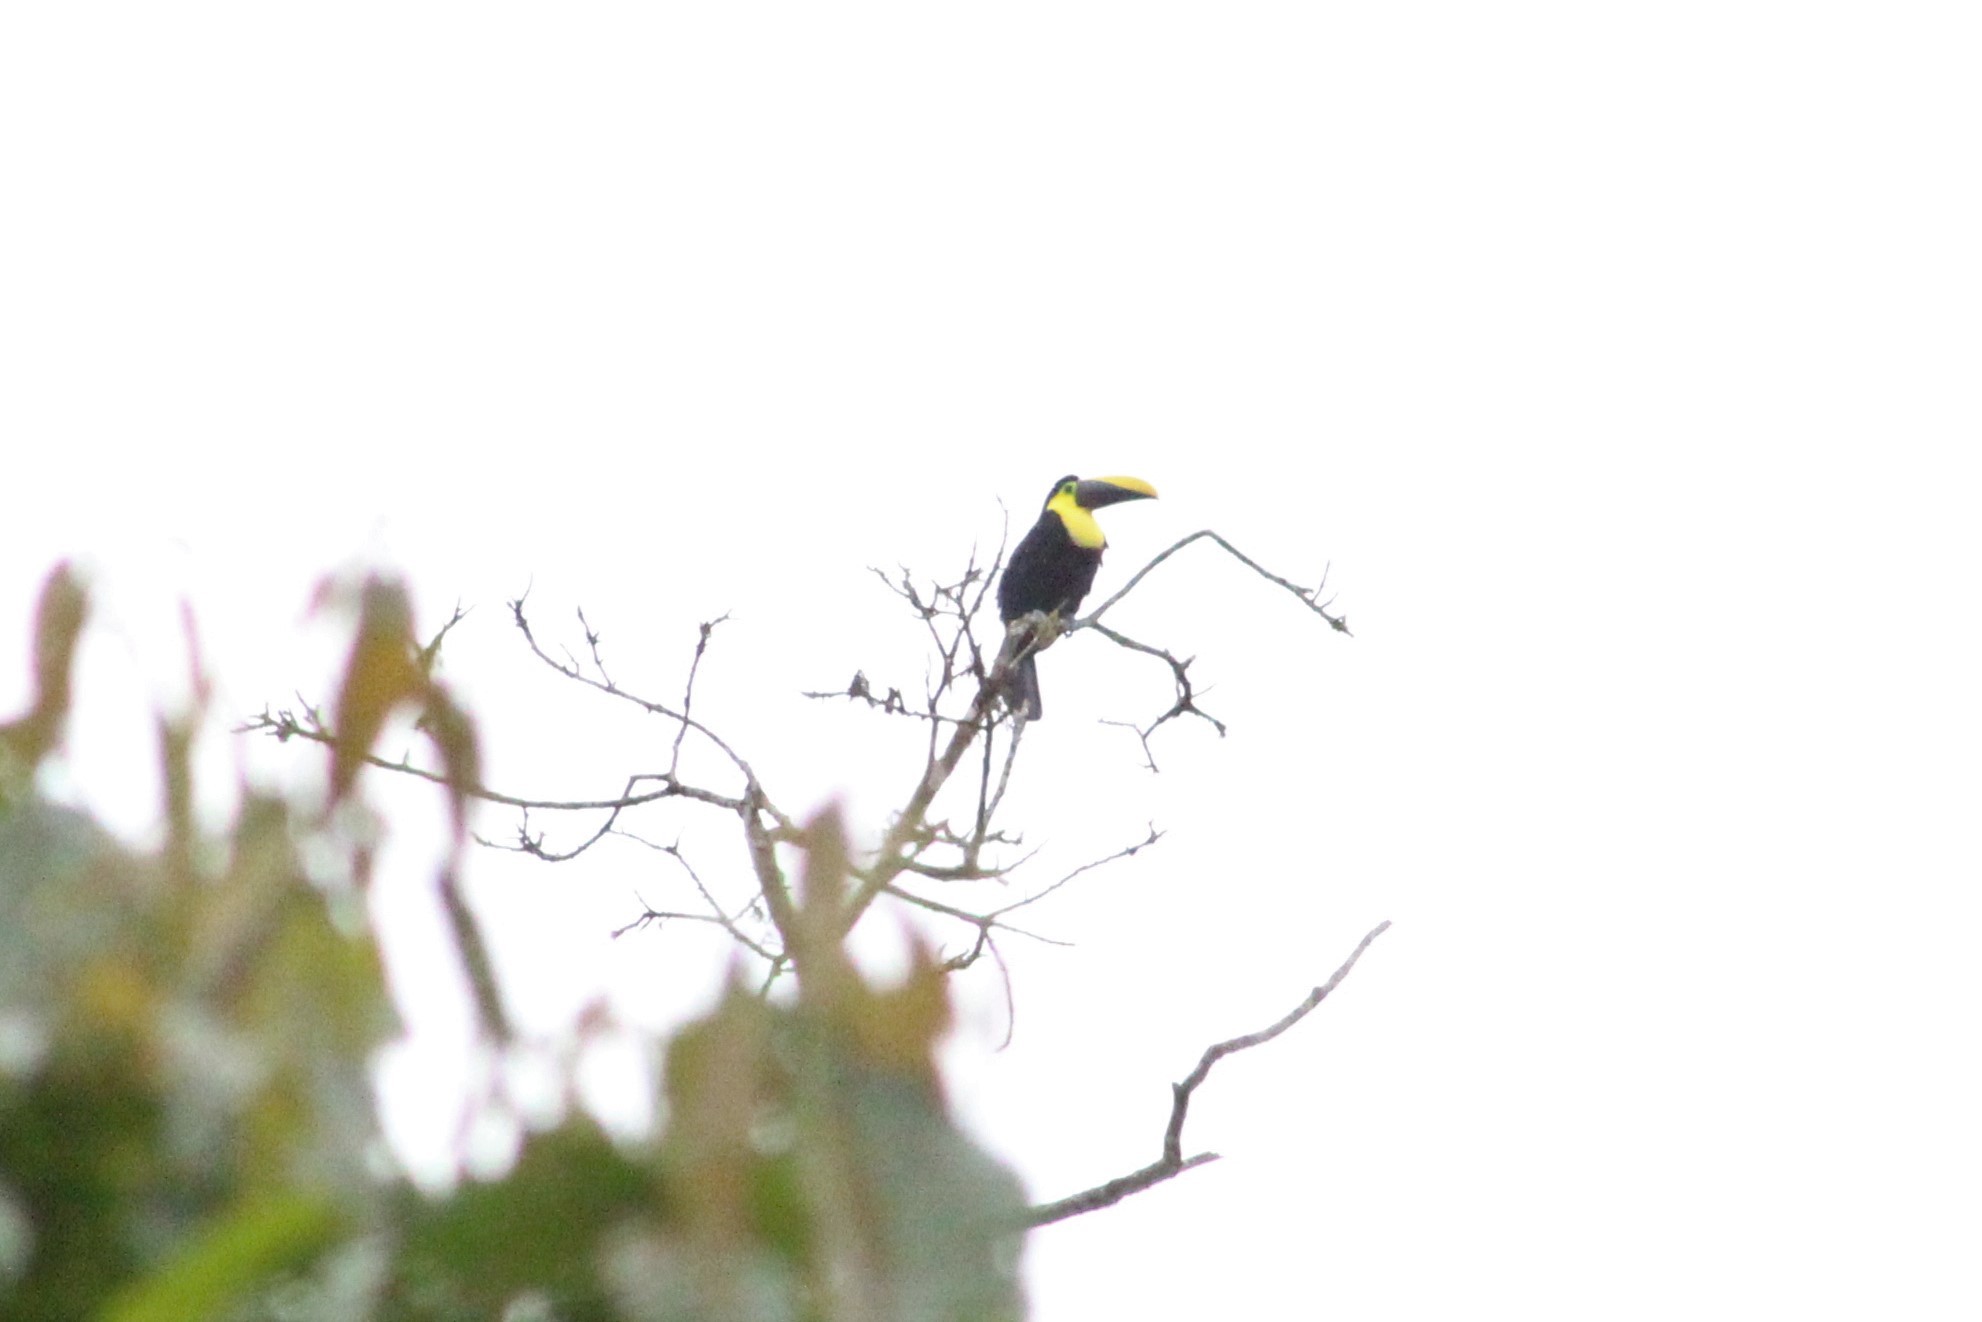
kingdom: Animalia
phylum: Chordata
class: Aves
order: Piciformes
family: Ramphastidae
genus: Ramphastos
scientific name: Ramphastos brevis
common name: Choco toucan
